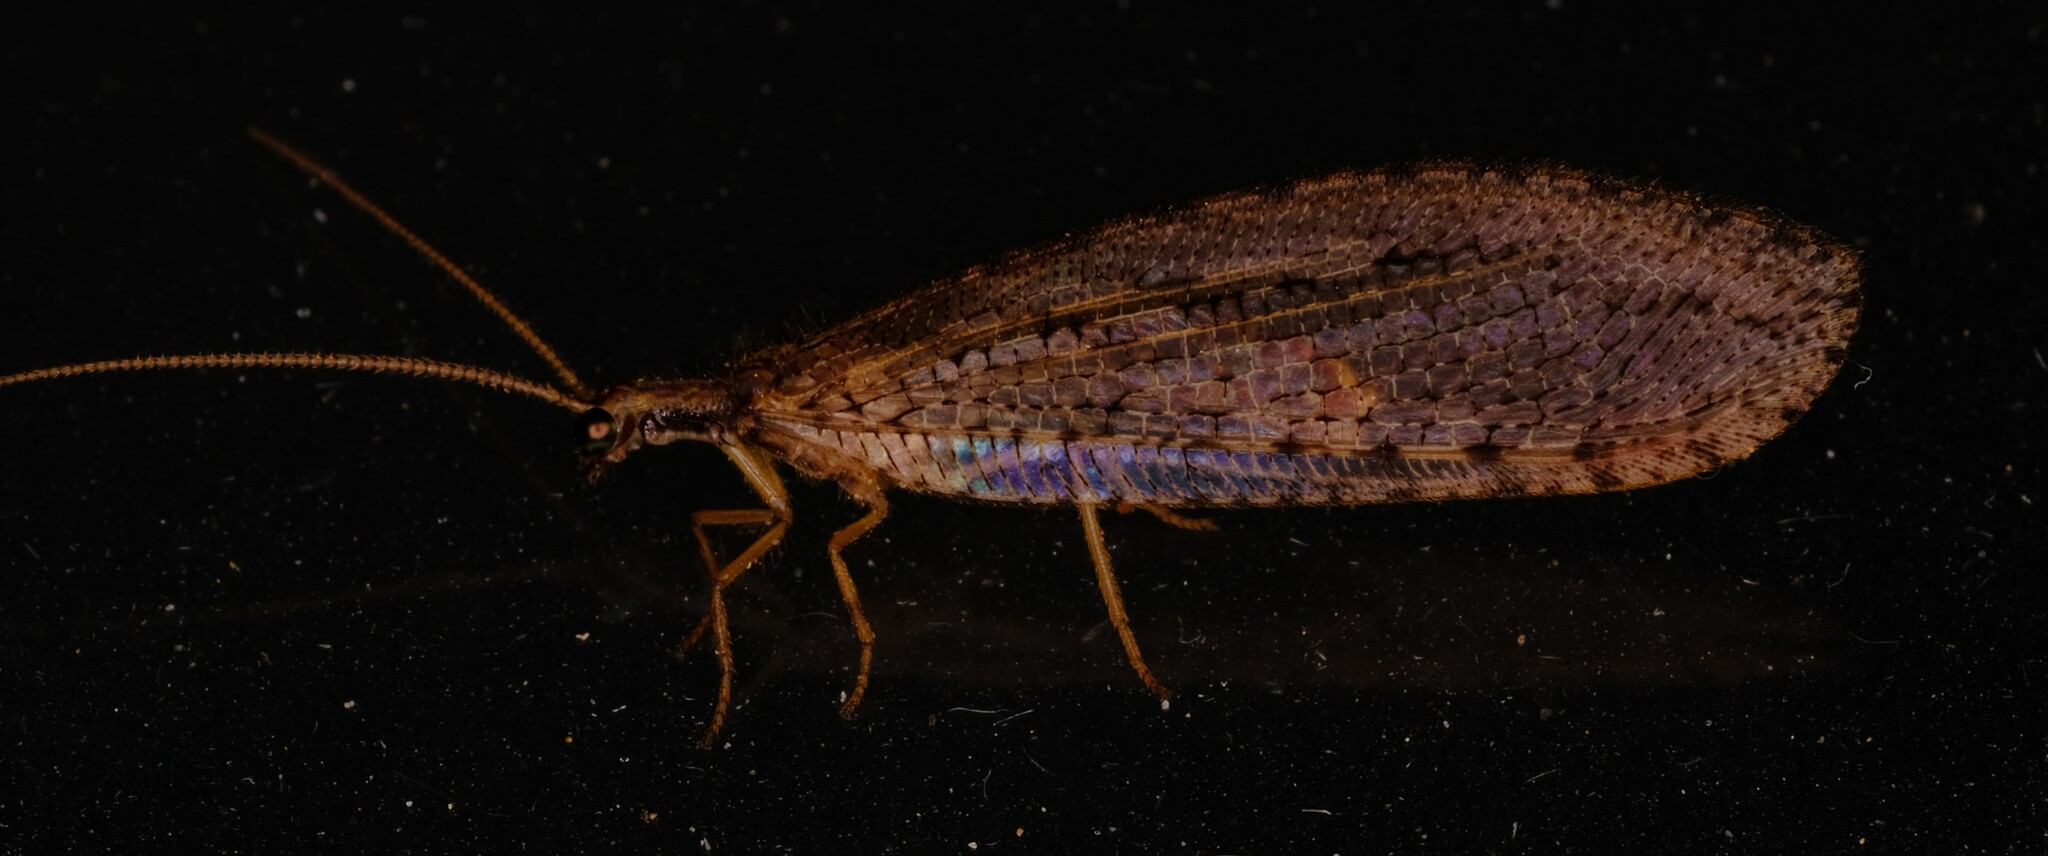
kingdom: Animalia
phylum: Arthropoda
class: Insecta
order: Neuroptera
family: Osmylidae
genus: Stenosmylus
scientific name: Stenosmylus tenuis
